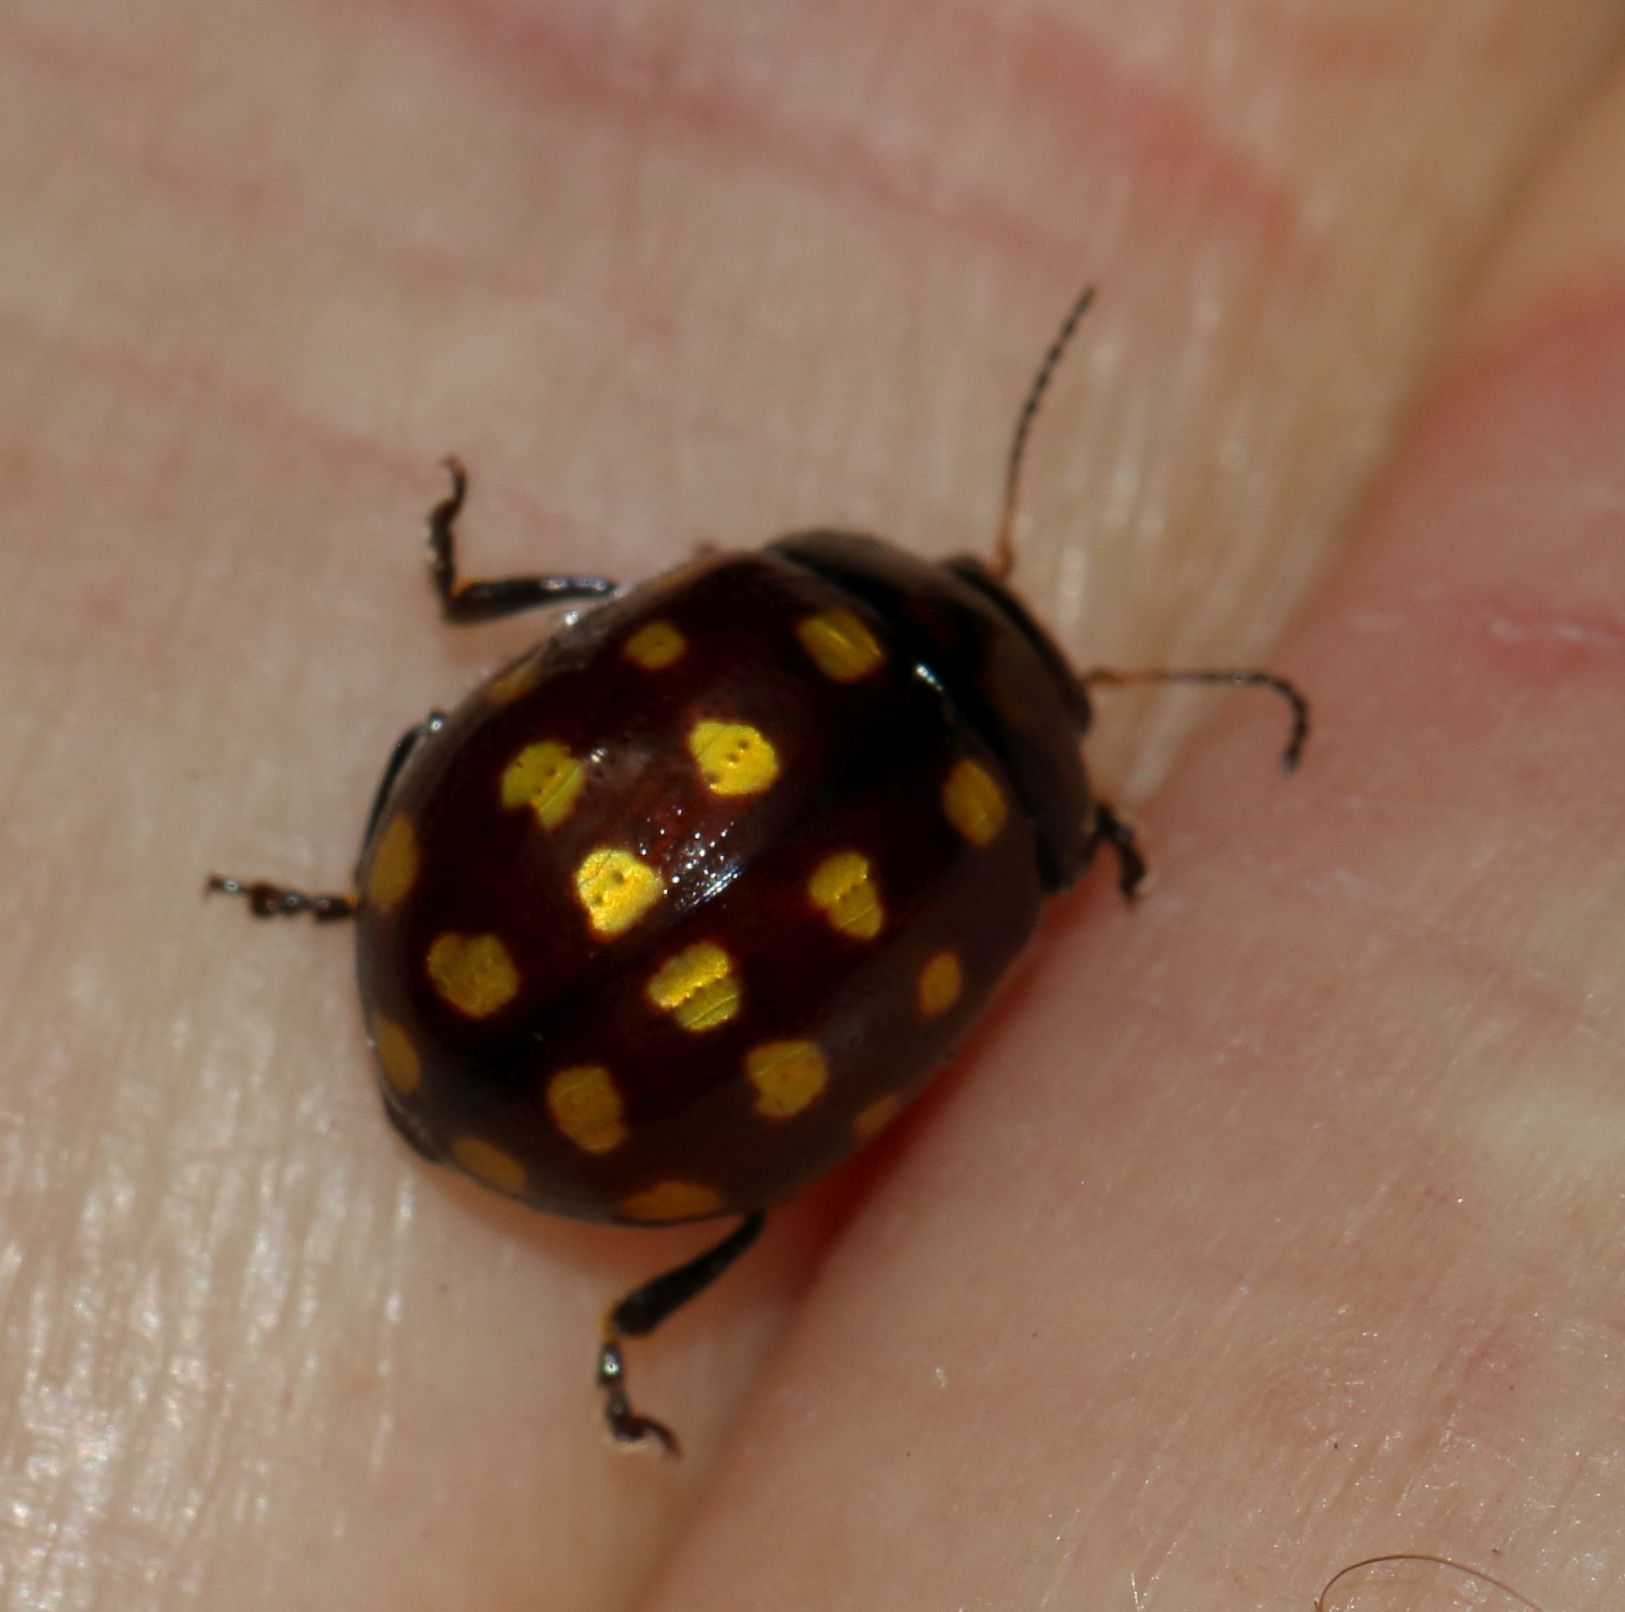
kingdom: Animalia
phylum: Arthropoda
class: Insecta
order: Coleoptera
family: Chrysomelidae
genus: Chrysolina
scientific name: Chrysolina
